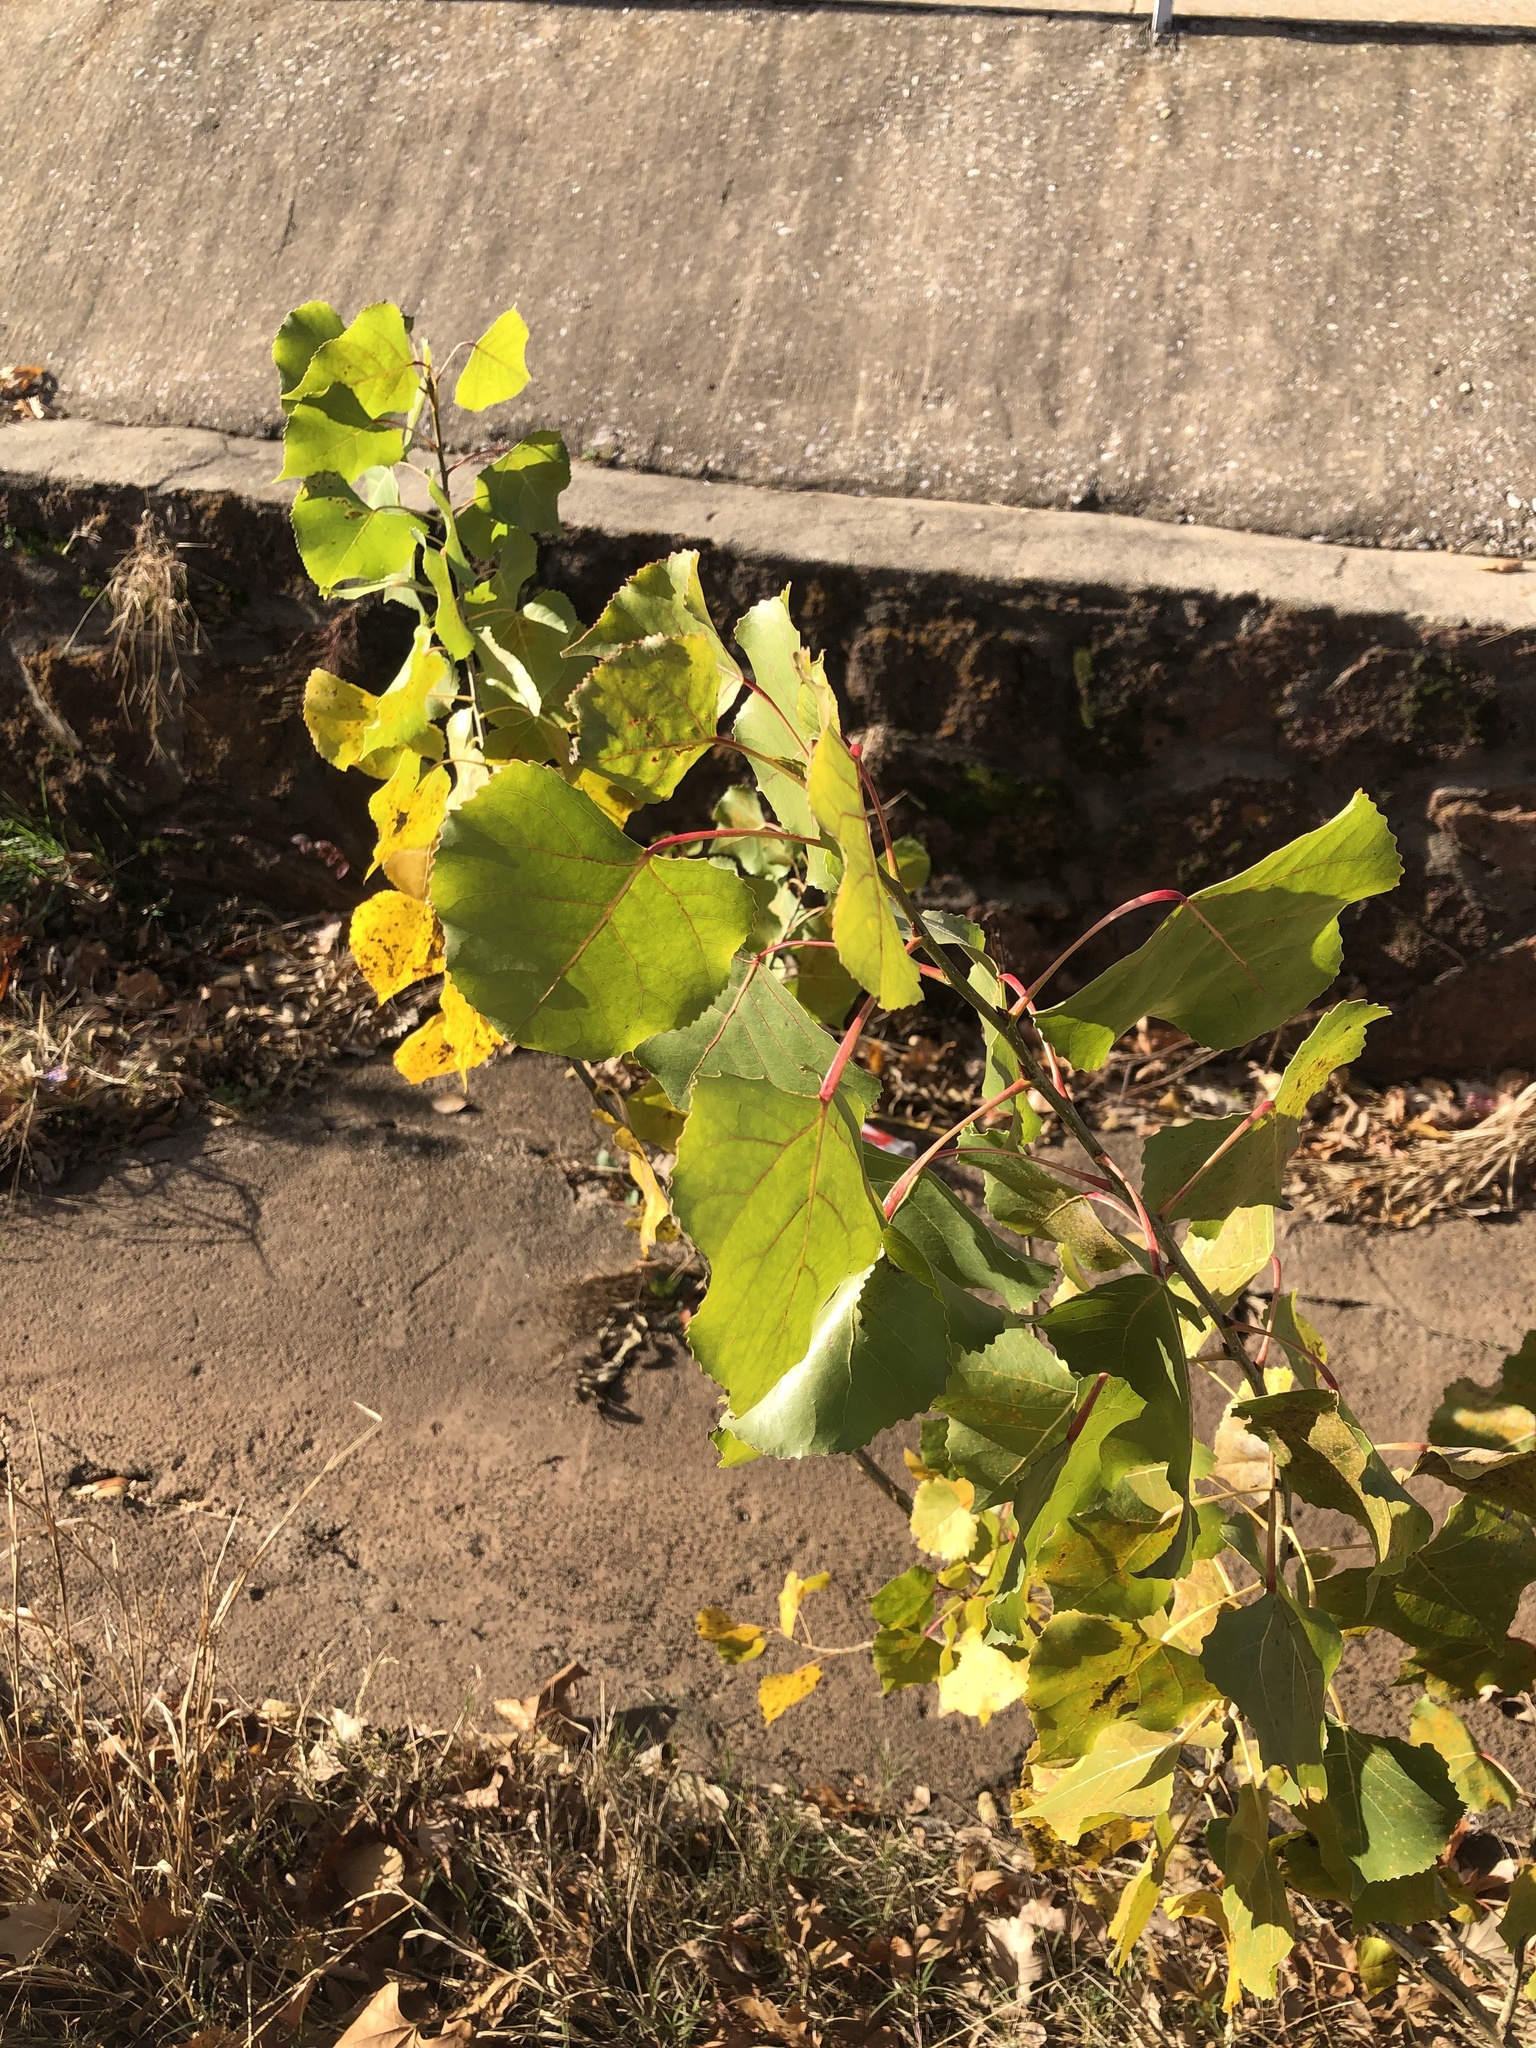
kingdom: Plantae
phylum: Tracheophyta
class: Magnoliopsida
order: Malpighiales
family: Salicaceae
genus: Populus
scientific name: Populus deltoides
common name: Eastern cottonwood
